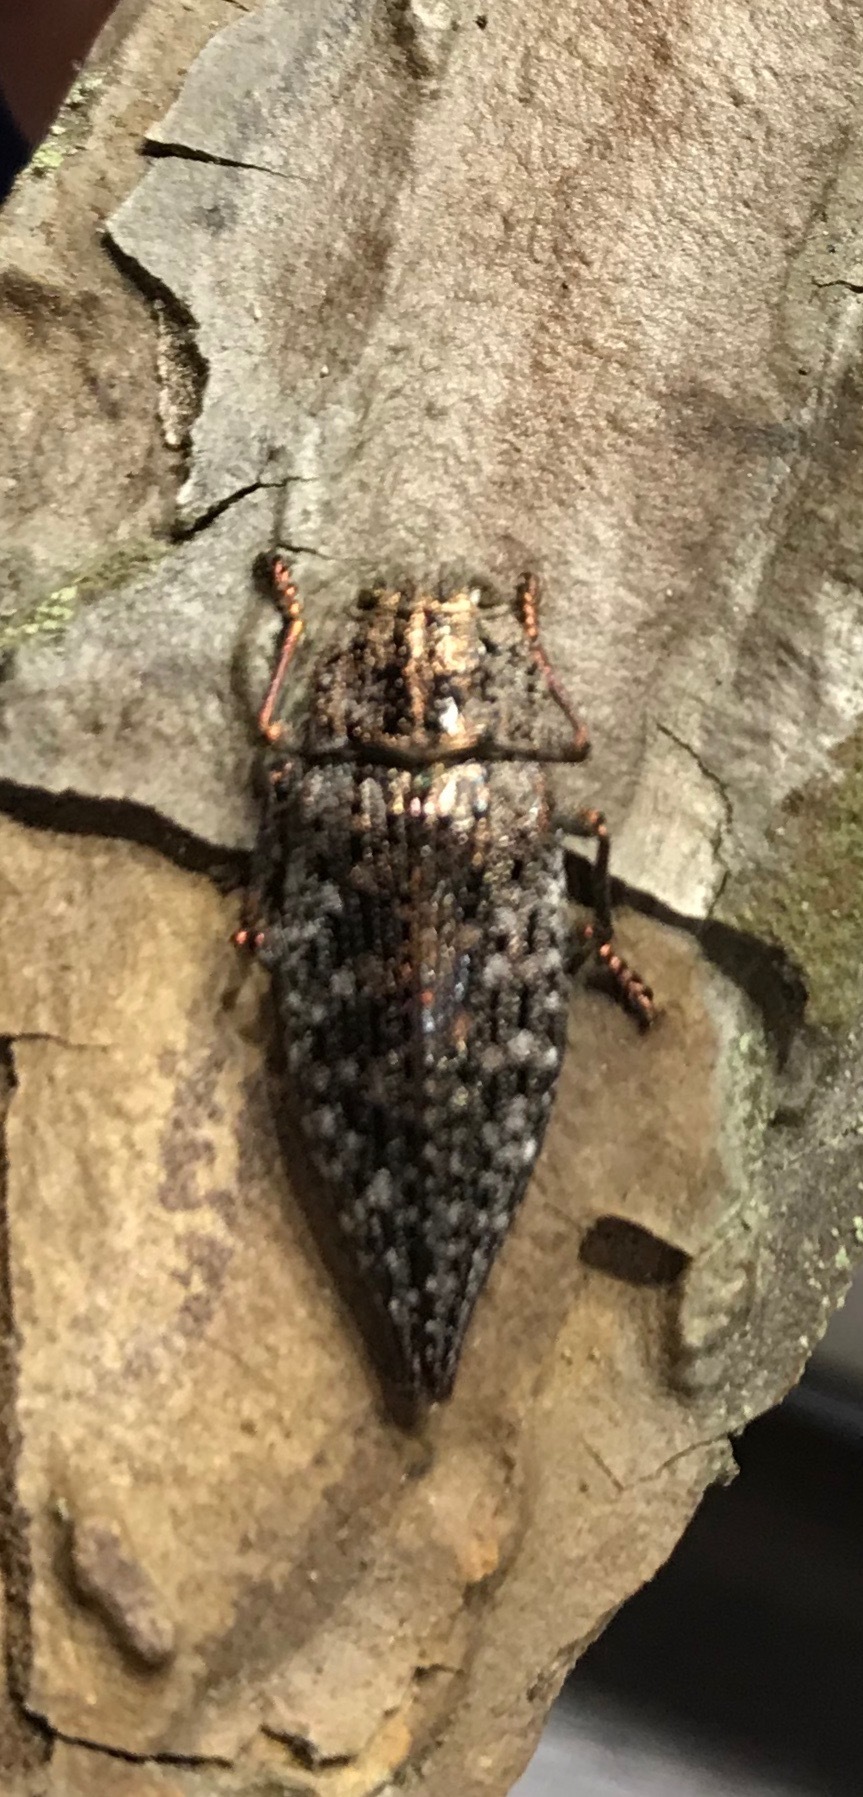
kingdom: Animalia
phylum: Arthropoda
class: Insecta
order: Coleoptera
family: Buprestidae
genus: Dicerca
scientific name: Dicerca furcata
